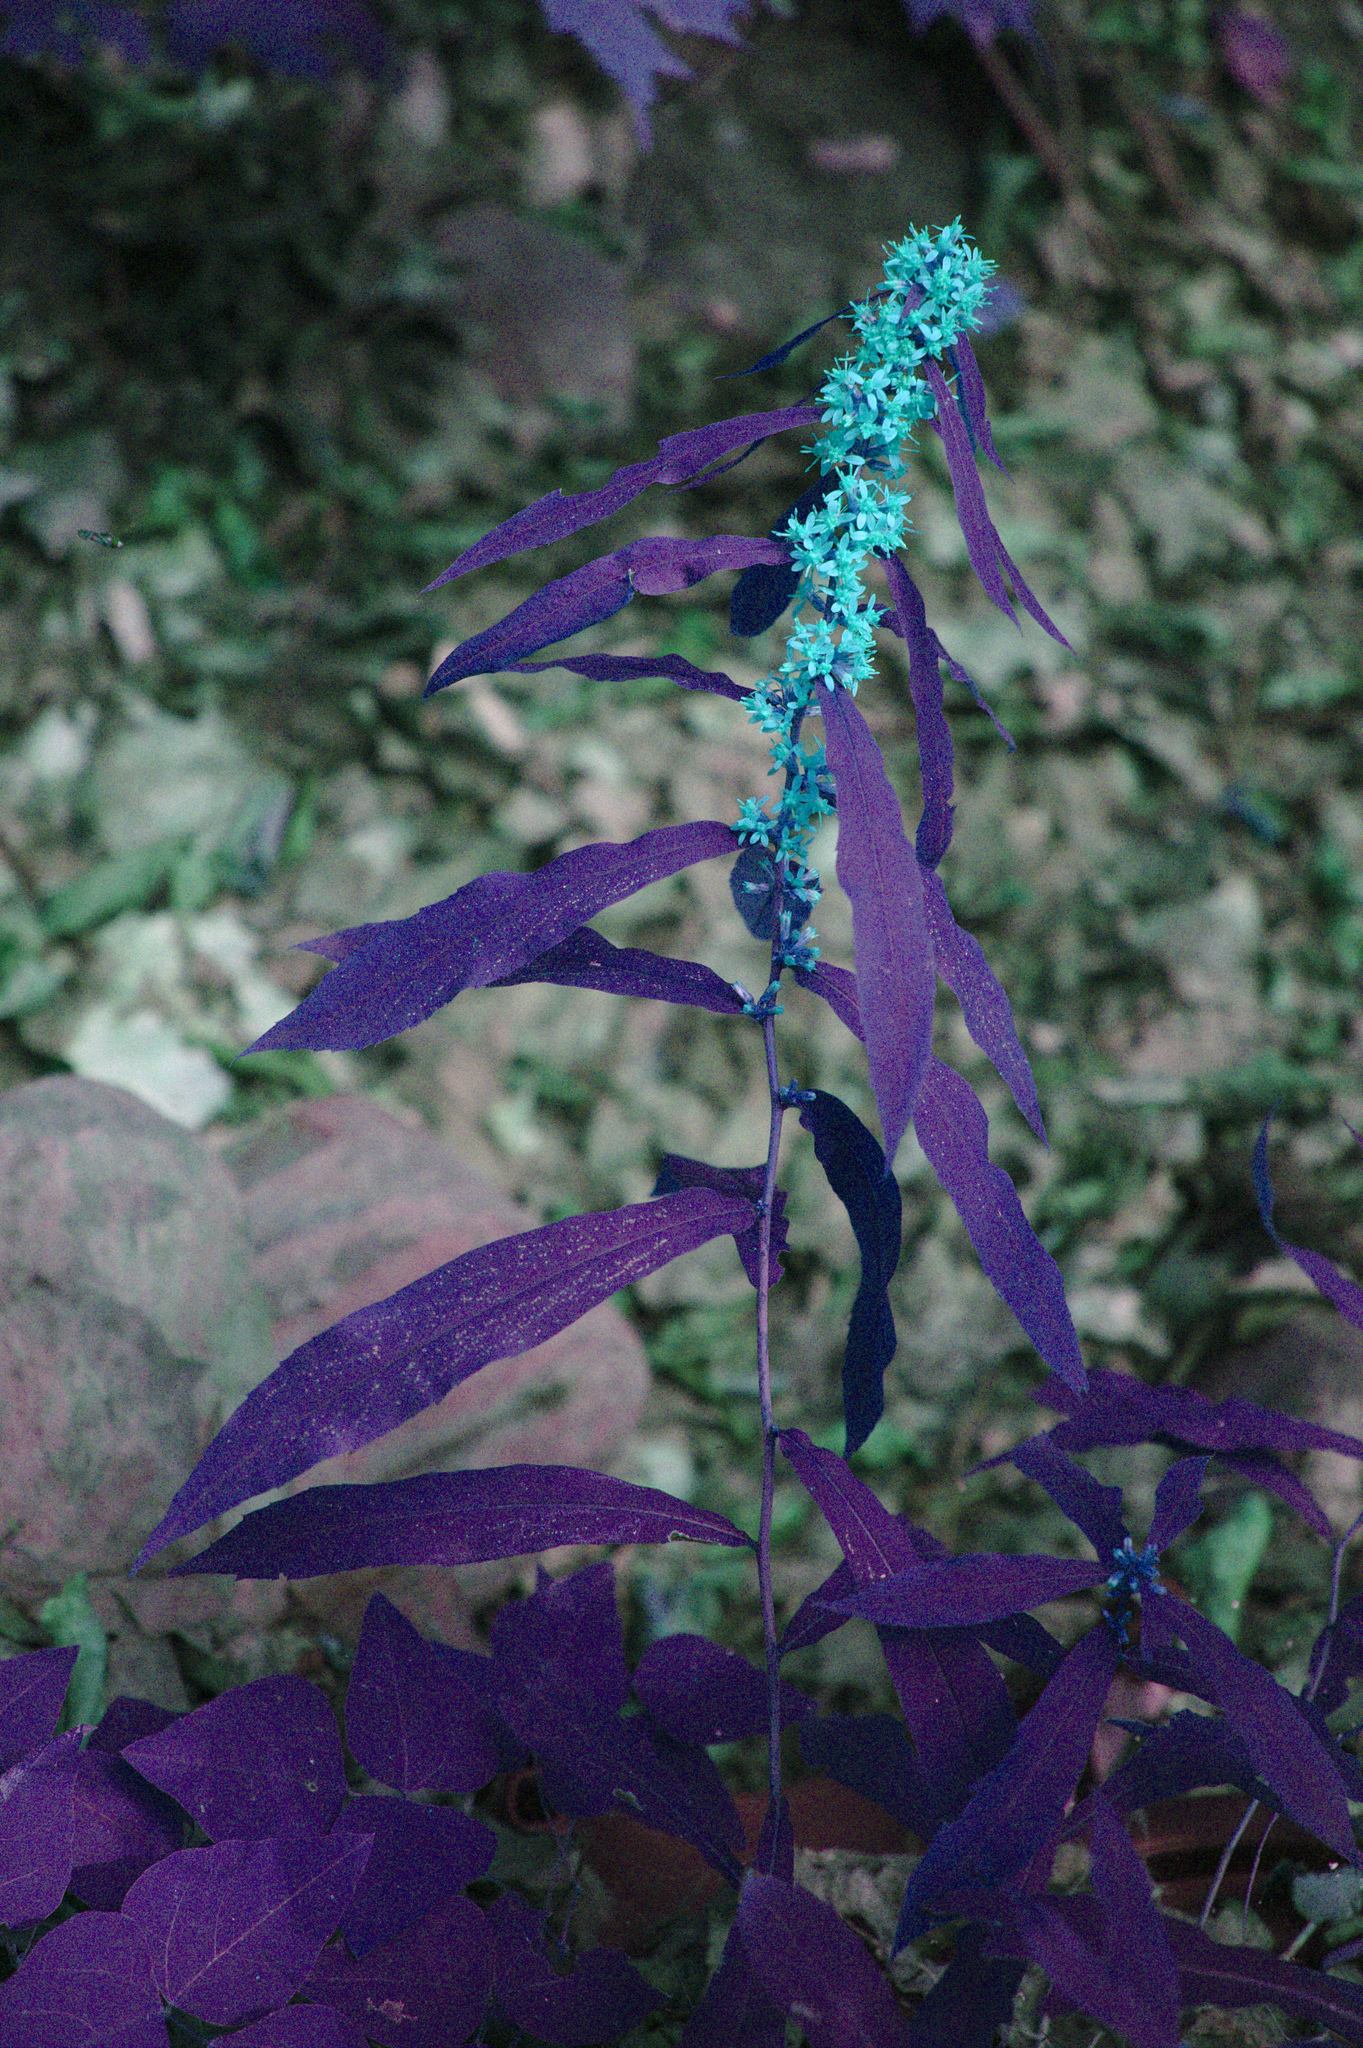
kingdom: Plantae
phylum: Tracheophyta
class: Magnoliopsida
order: Asterales
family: Asteraceae
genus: Solidago
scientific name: Solidago caesia
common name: Woodland goldenrod
